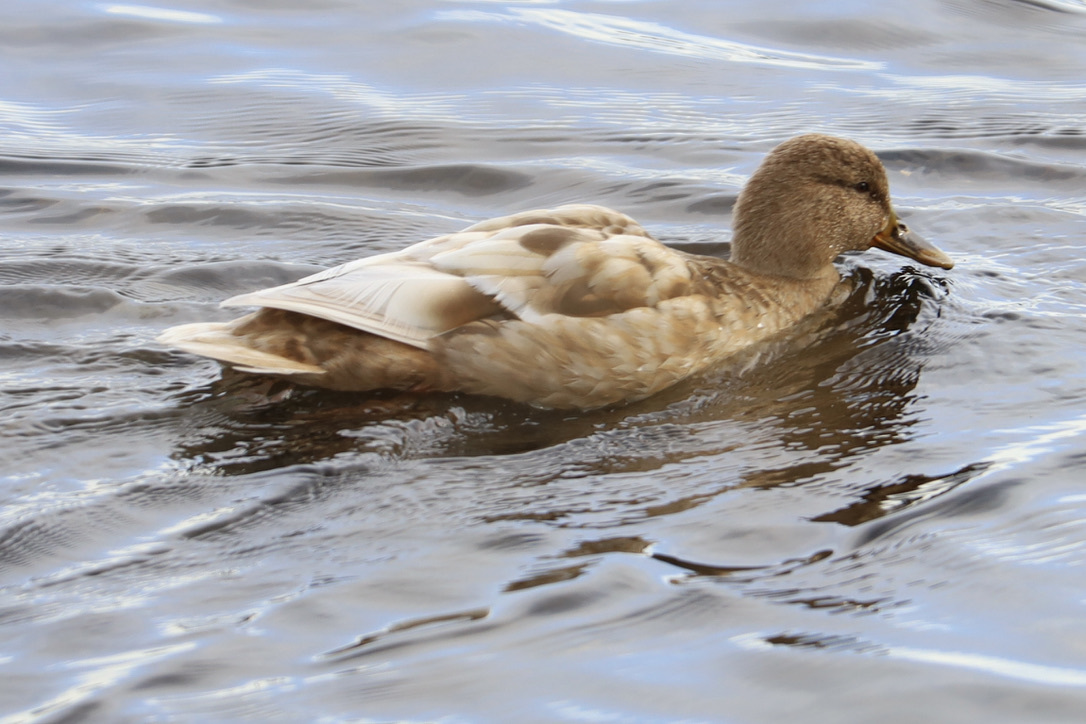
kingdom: Animalia
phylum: Chordata
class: Aves
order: Anseriformes
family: Anatidae
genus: Anas
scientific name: Anas platyrhynchos
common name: Mallard
